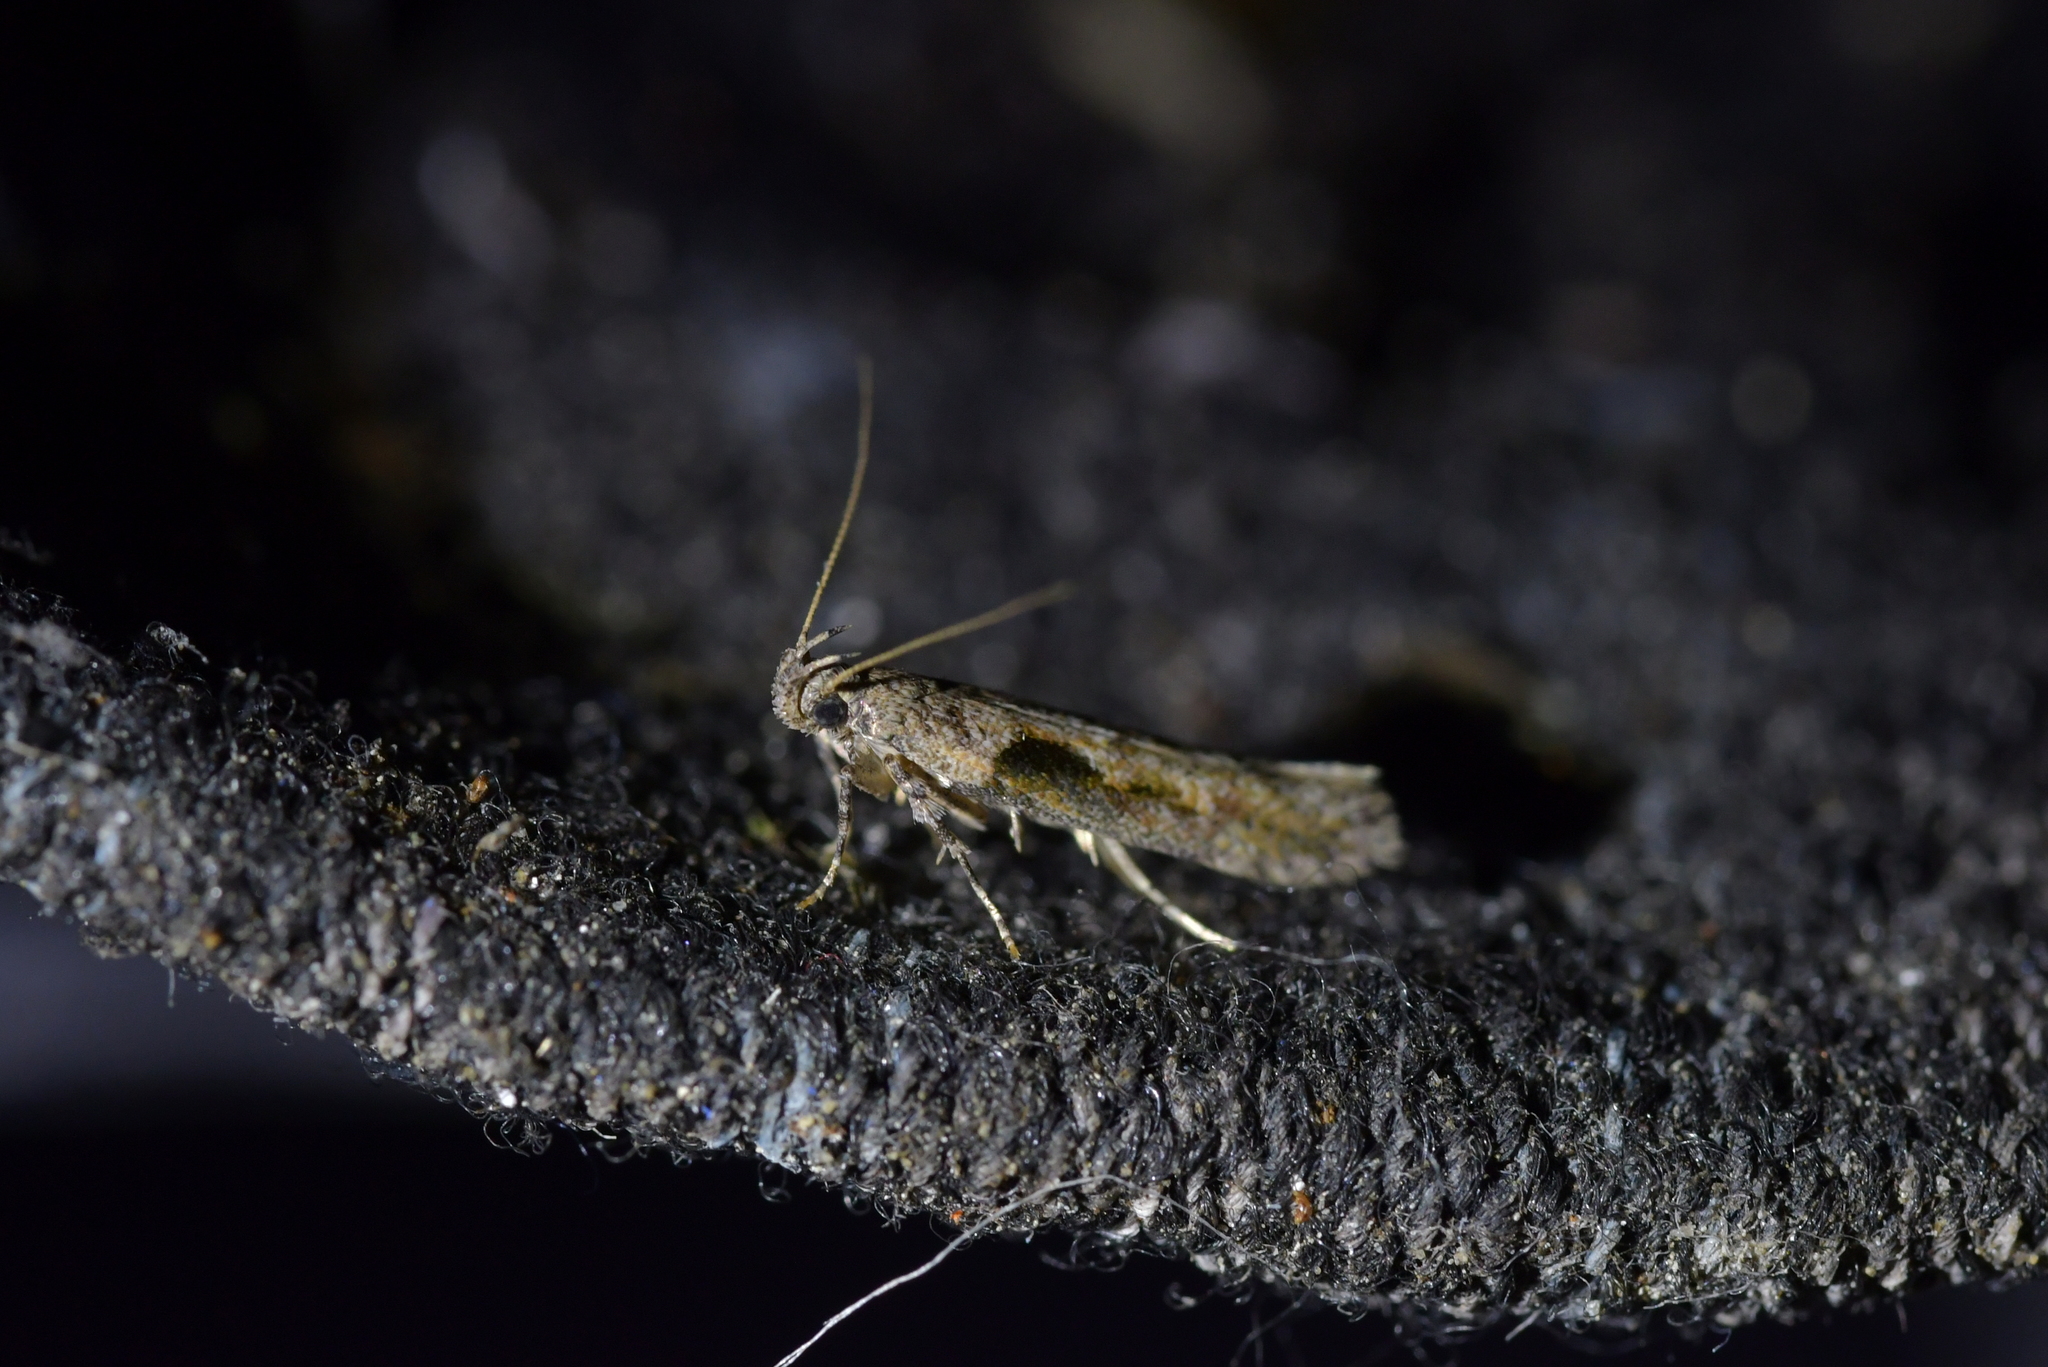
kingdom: Animalia
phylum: Arthropoda
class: Insecta
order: Lepidoptera
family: Gelechiidae
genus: Symmetrischema
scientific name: Symmetrischema tangolias
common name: Moth
